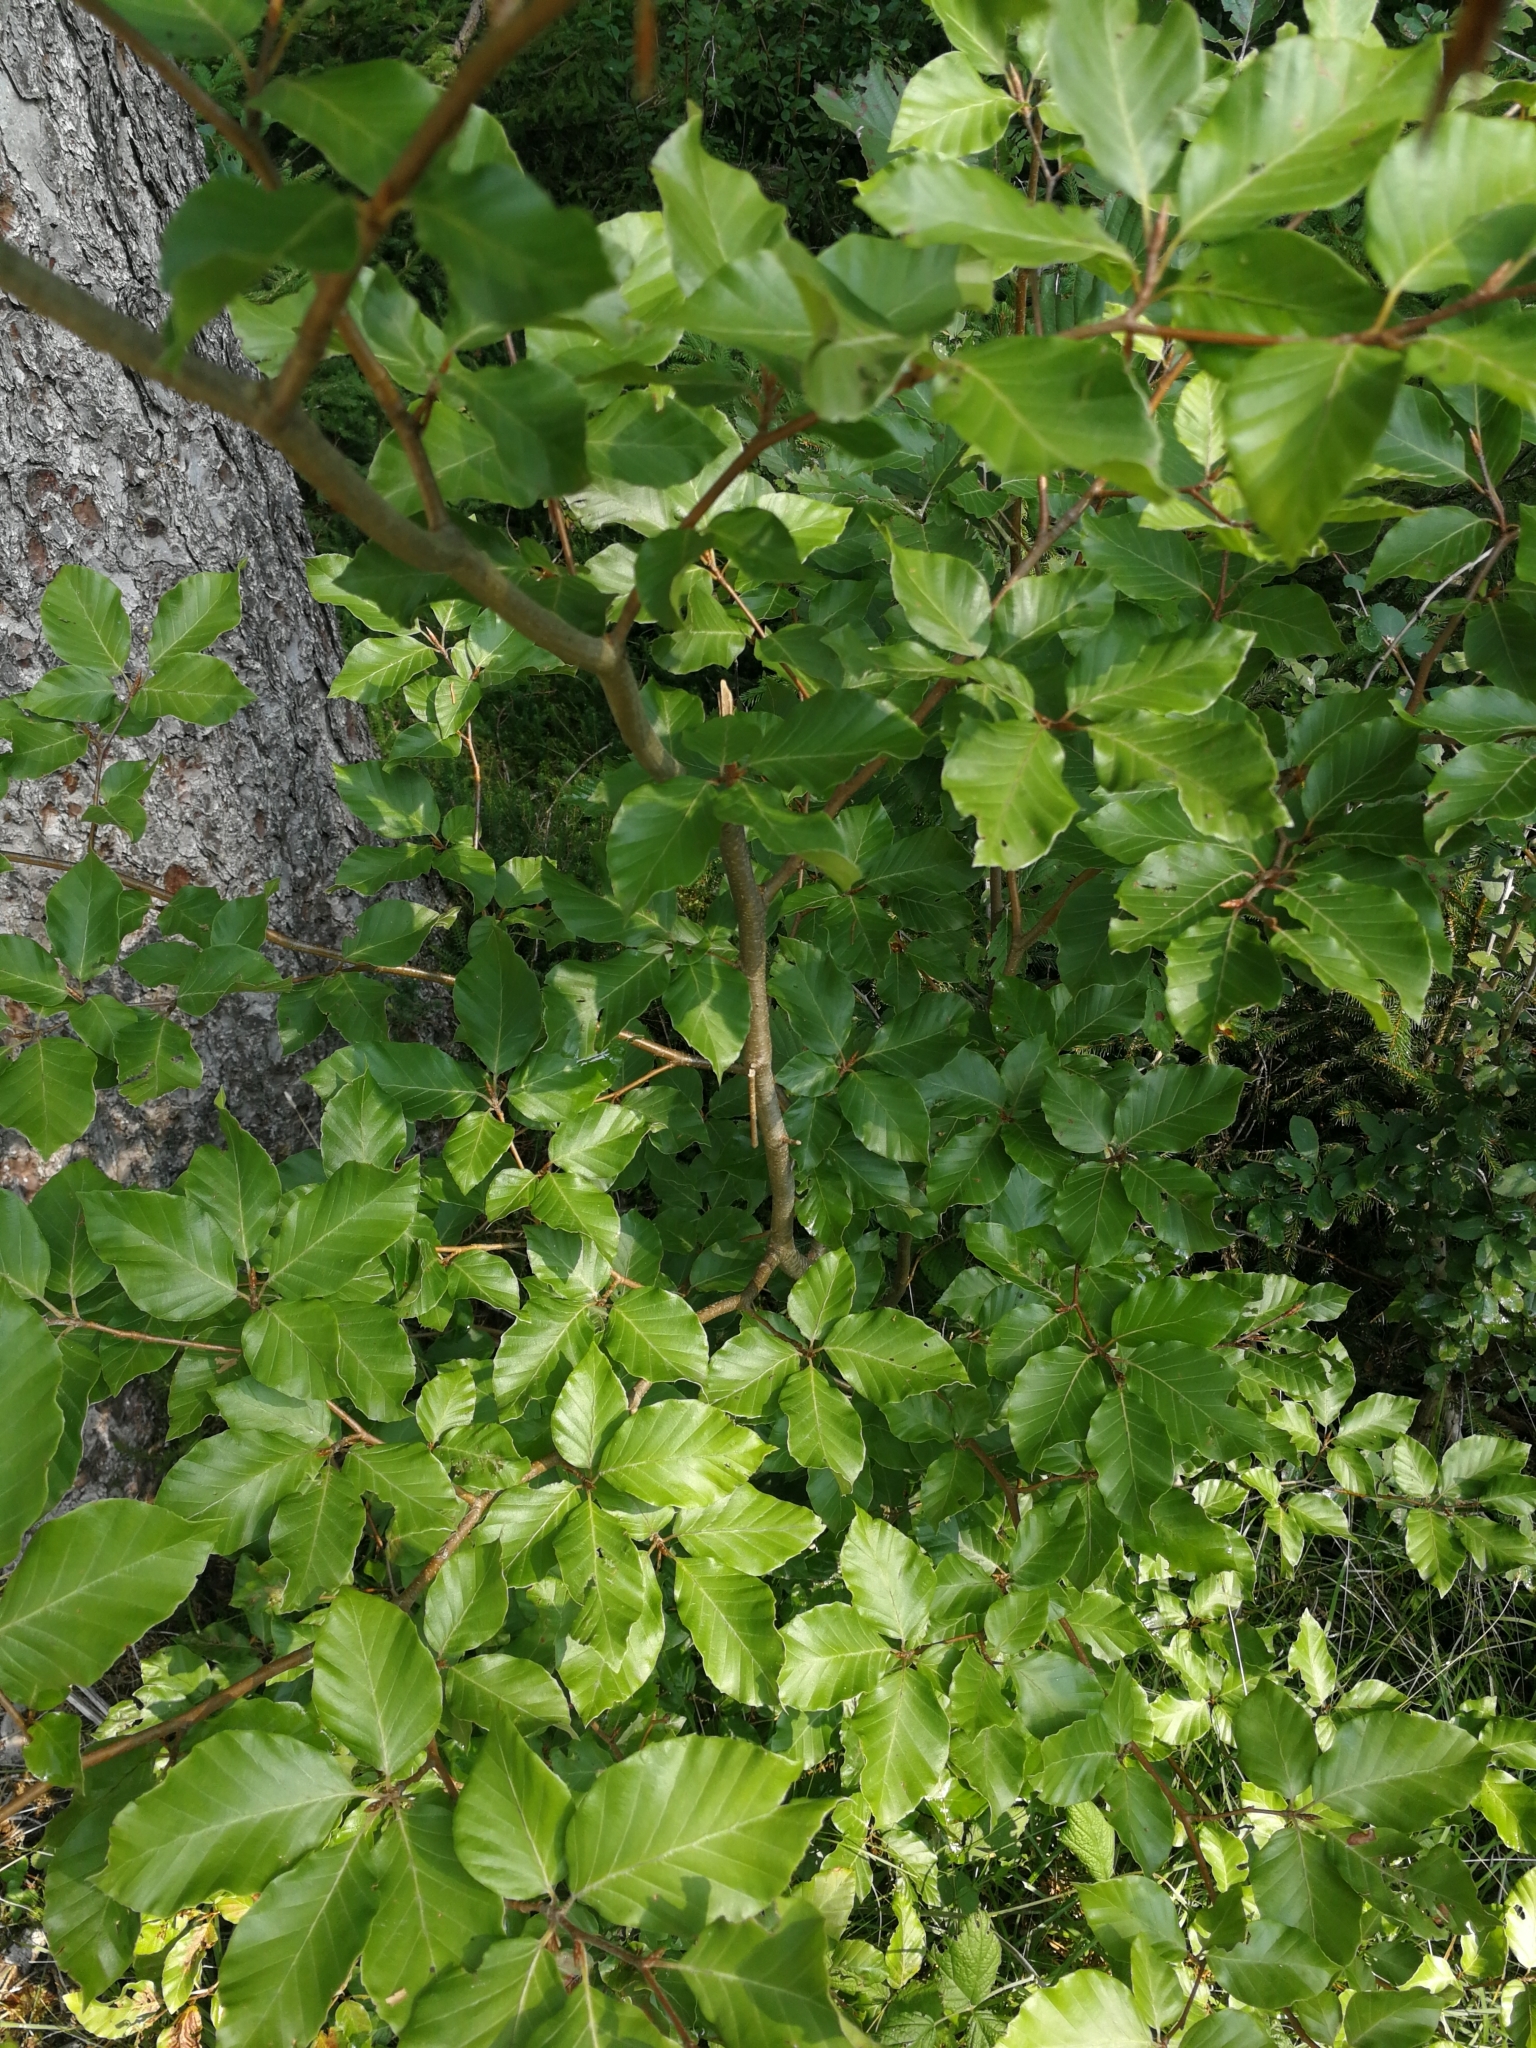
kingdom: Plantae
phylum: Tracheophyta
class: Magnoliopsida
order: Fagales
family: Fagaceae
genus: Fagus
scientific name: Fagus sylvatica
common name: Beech
